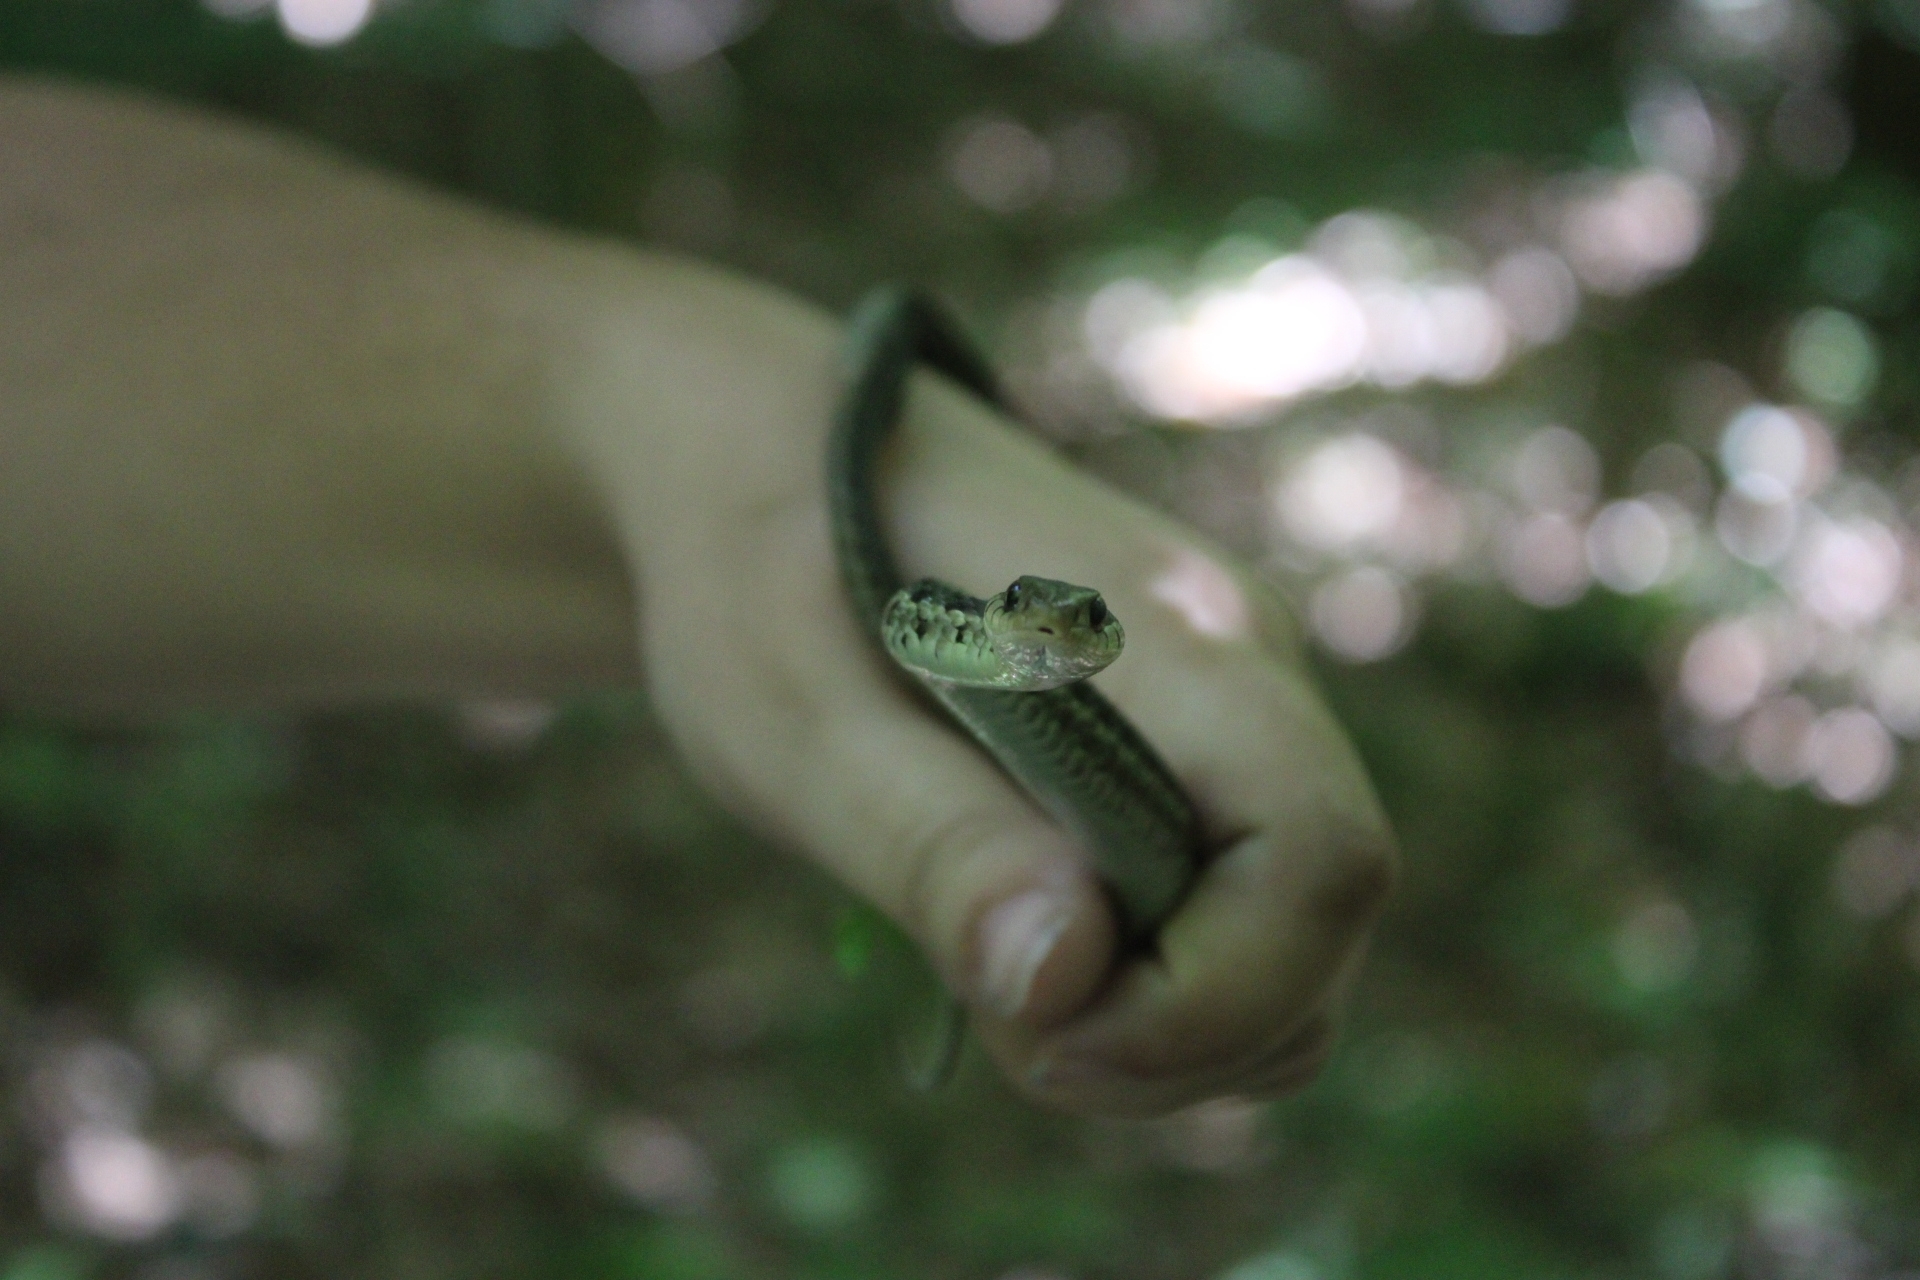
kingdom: Animalia
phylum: Chordata
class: Squamata
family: Colubridae
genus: Thamnophis
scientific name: Thamnophis sirtalis
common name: Common garter snake
